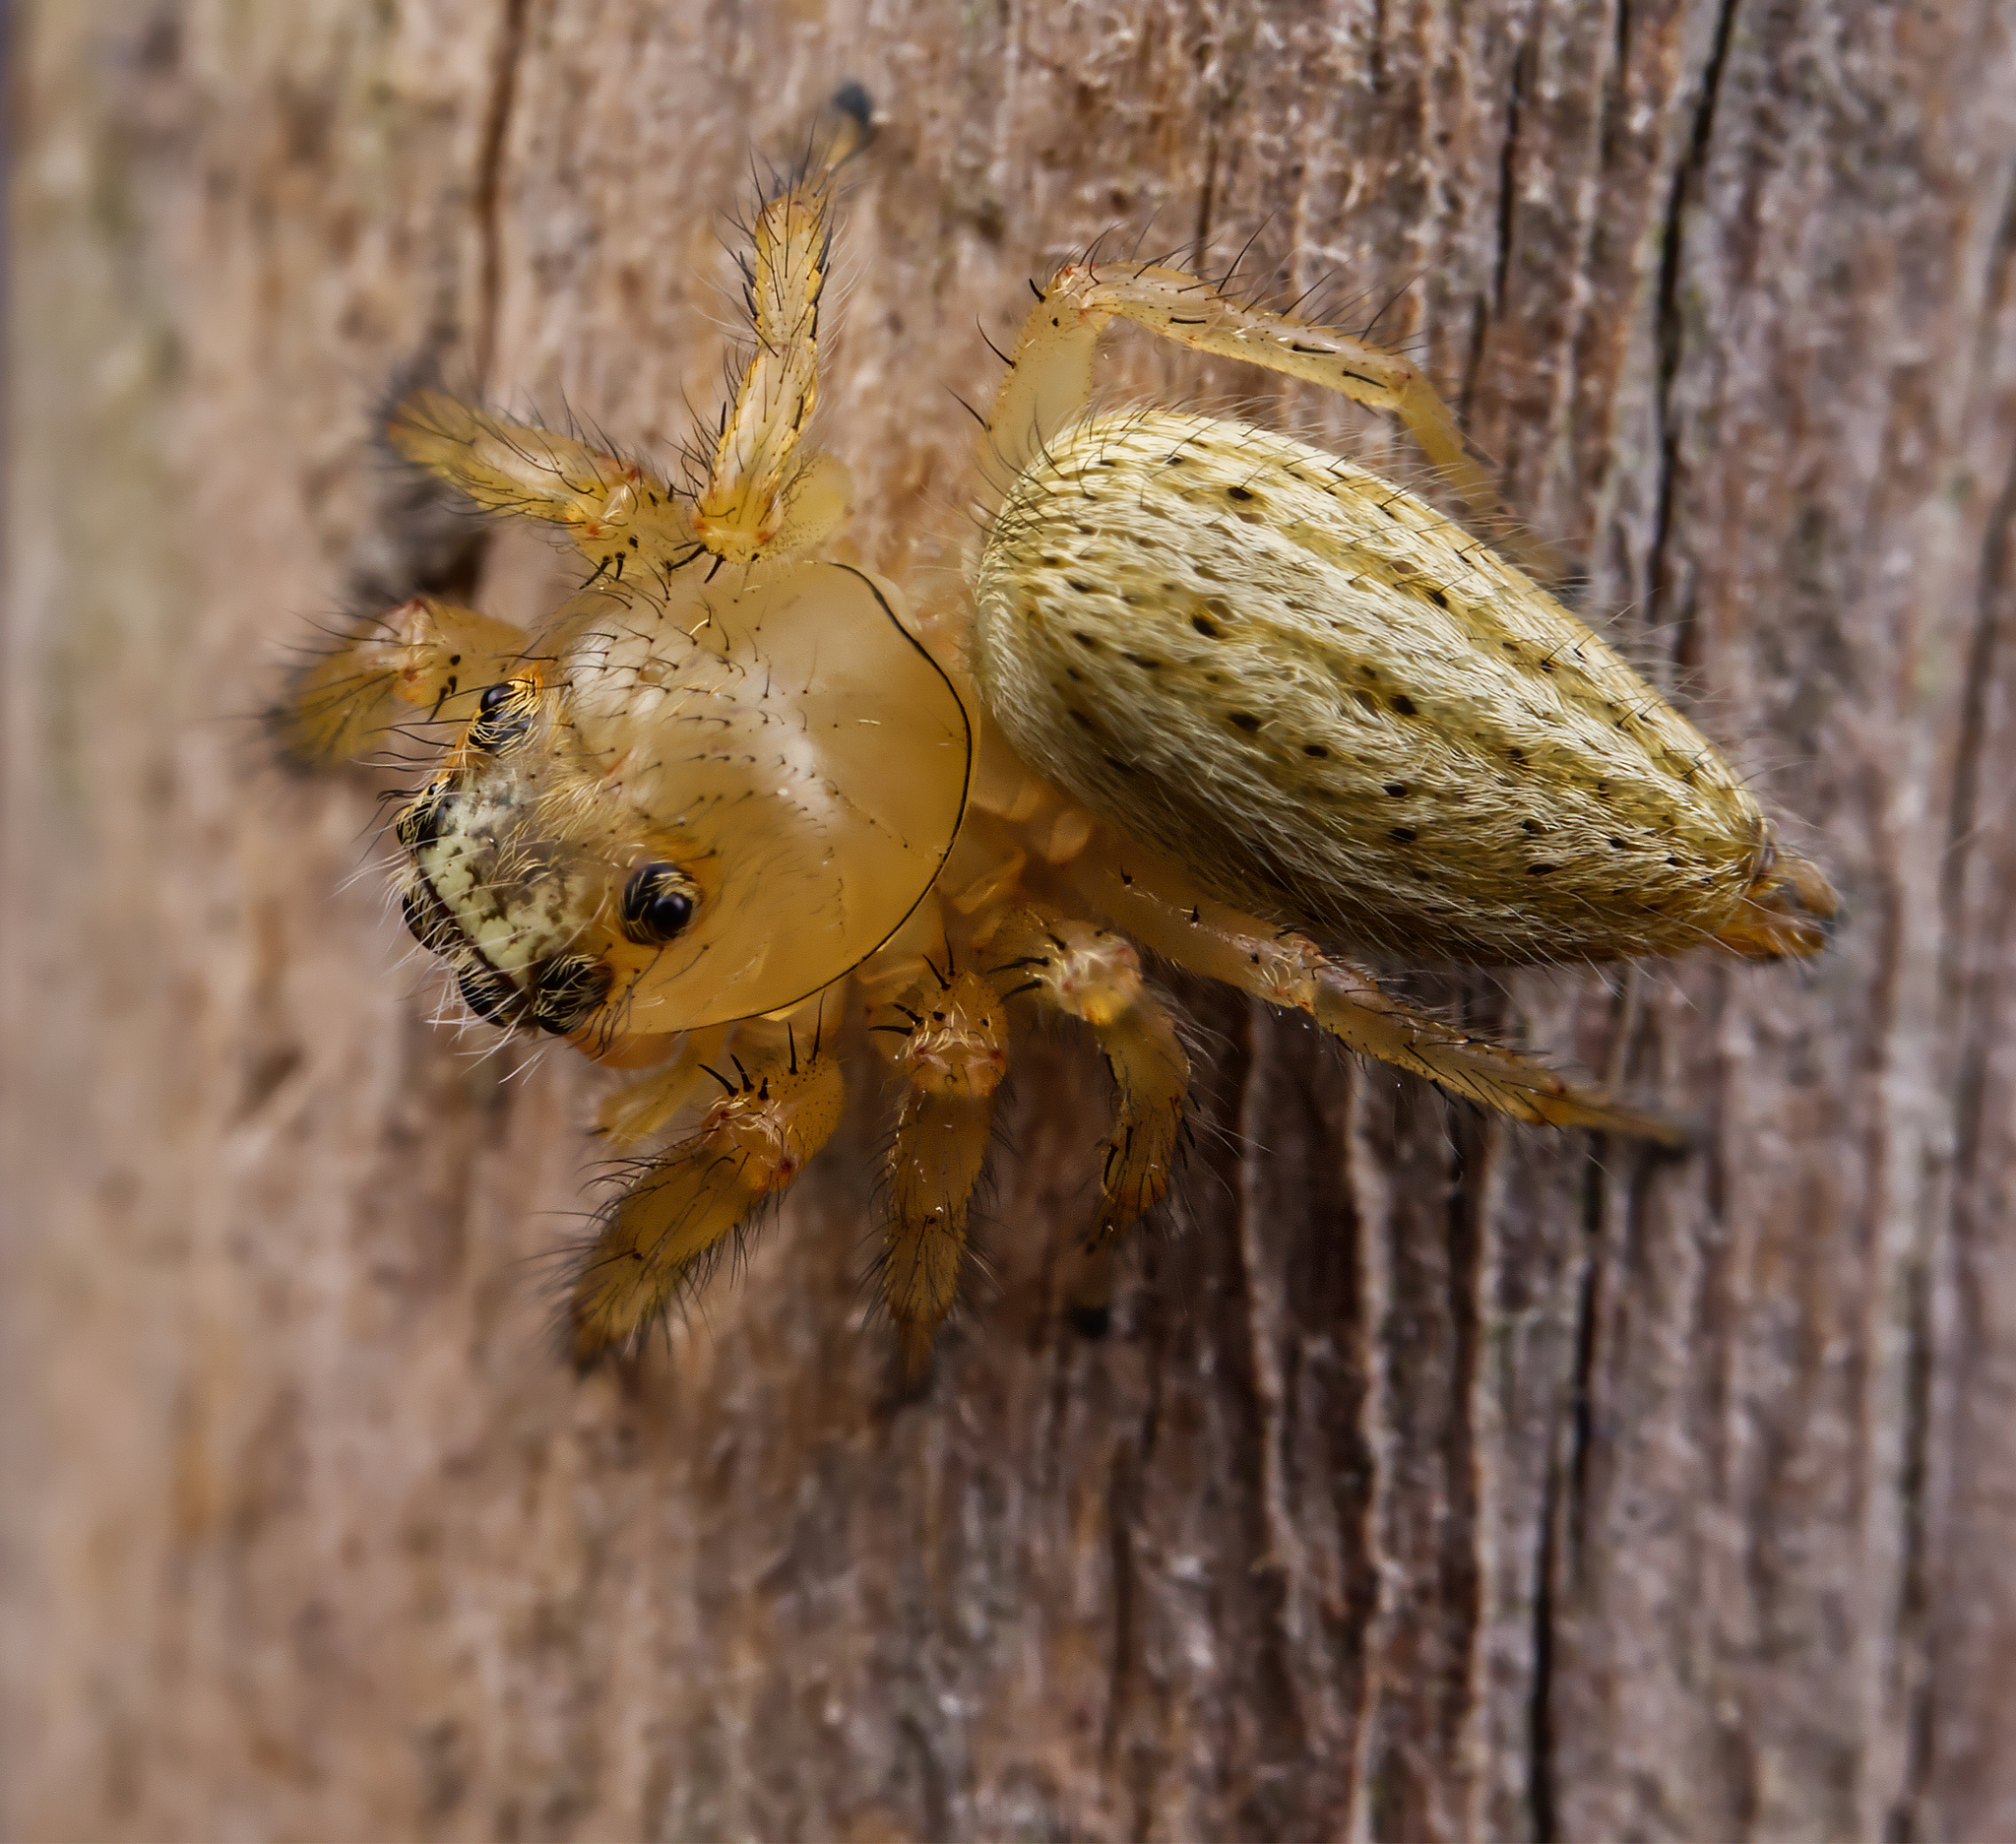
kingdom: Animalia
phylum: Arthropoda
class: Arachnida
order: Araneae
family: Salticidae
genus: Colonus
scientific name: Colonus puerperus
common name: Jumping spiders
